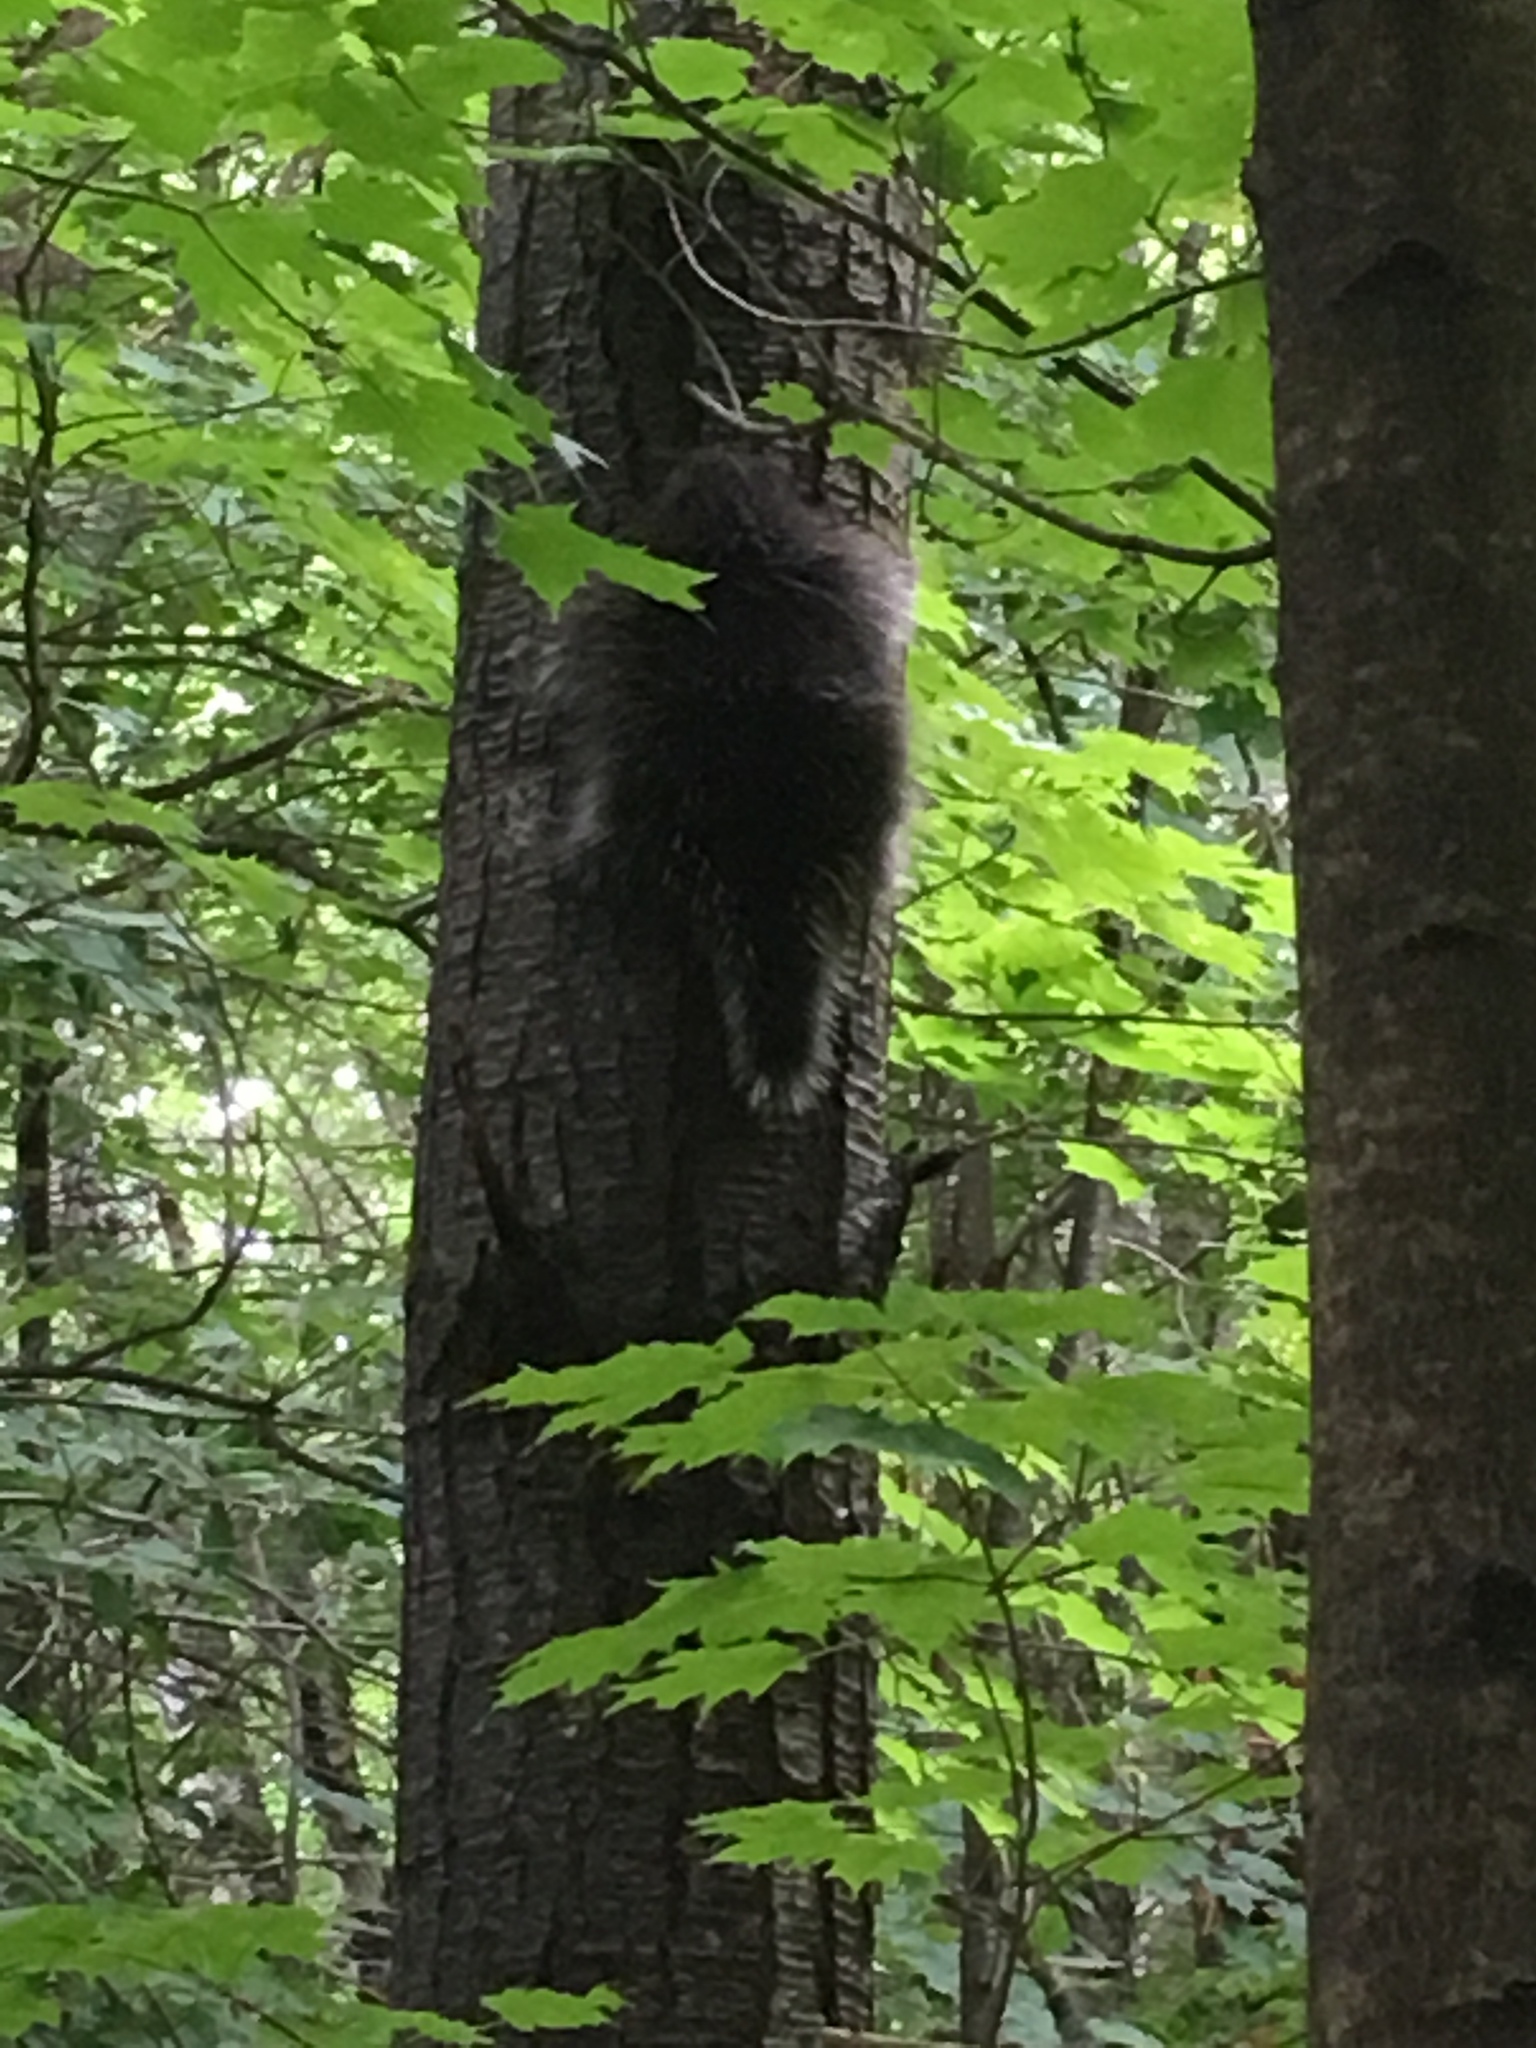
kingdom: Animalia
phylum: Chordata
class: Mammalia
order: Rodentia
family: Erethizontidae
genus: Erethizon
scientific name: Erethizon dorsatus
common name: North american porcupine
